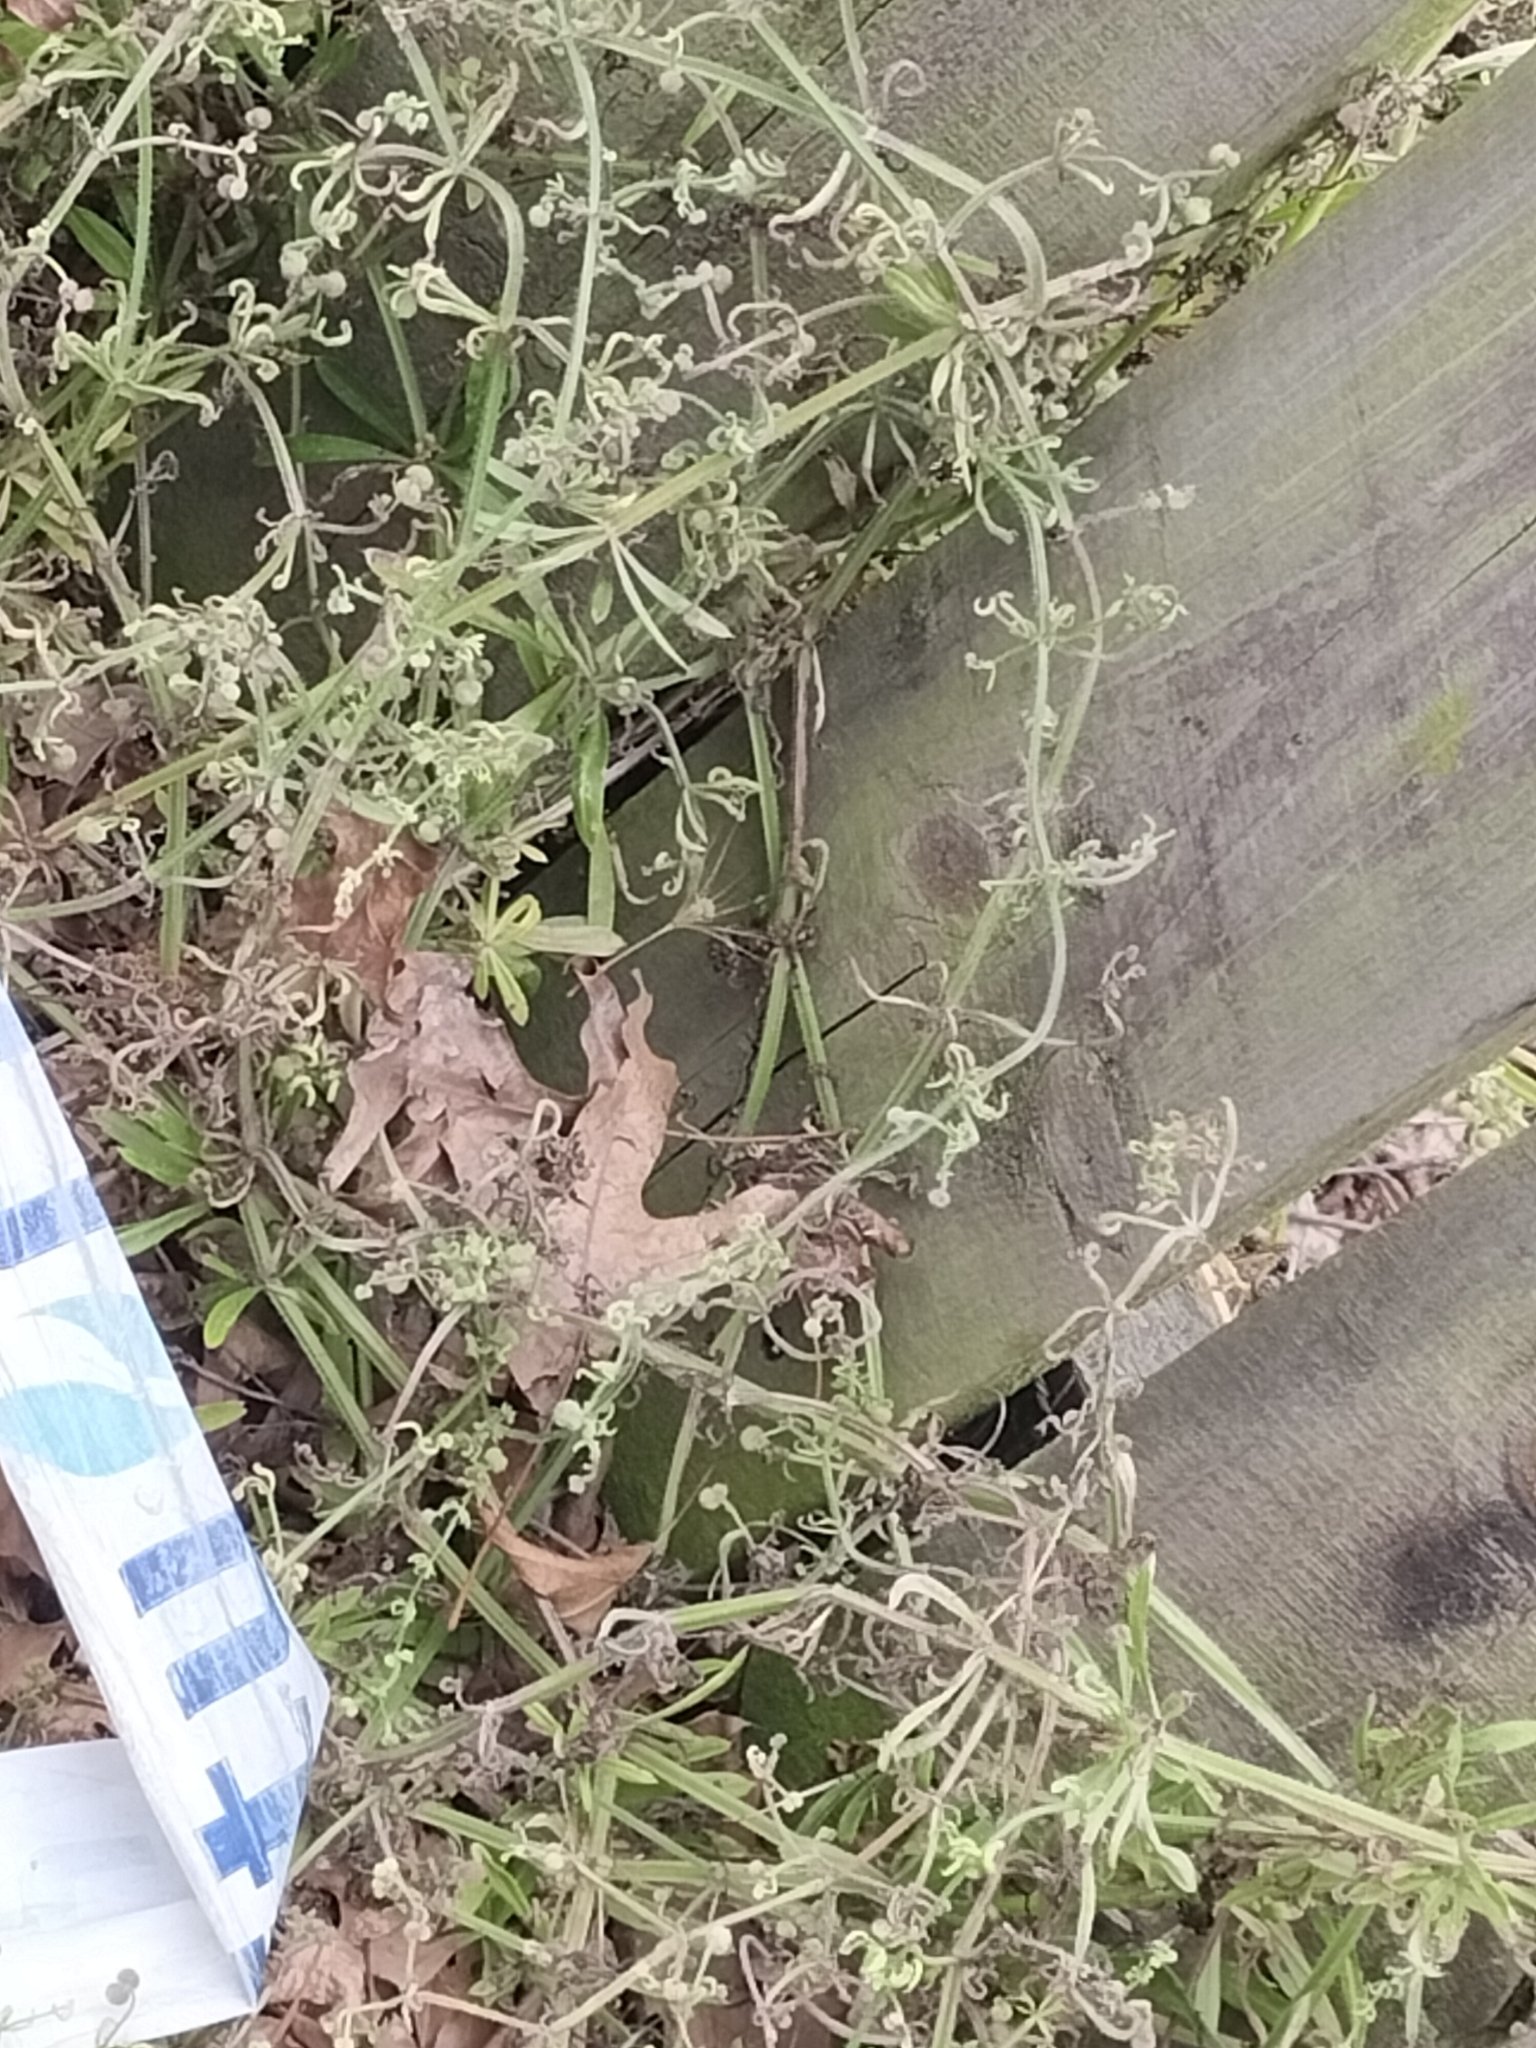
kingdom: Plantae
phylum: Tracheophyta
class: Magnoliopsida
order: Gentianales
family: Rubiaceae
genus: Galium
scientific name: Galium aparine
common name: Cleavers
